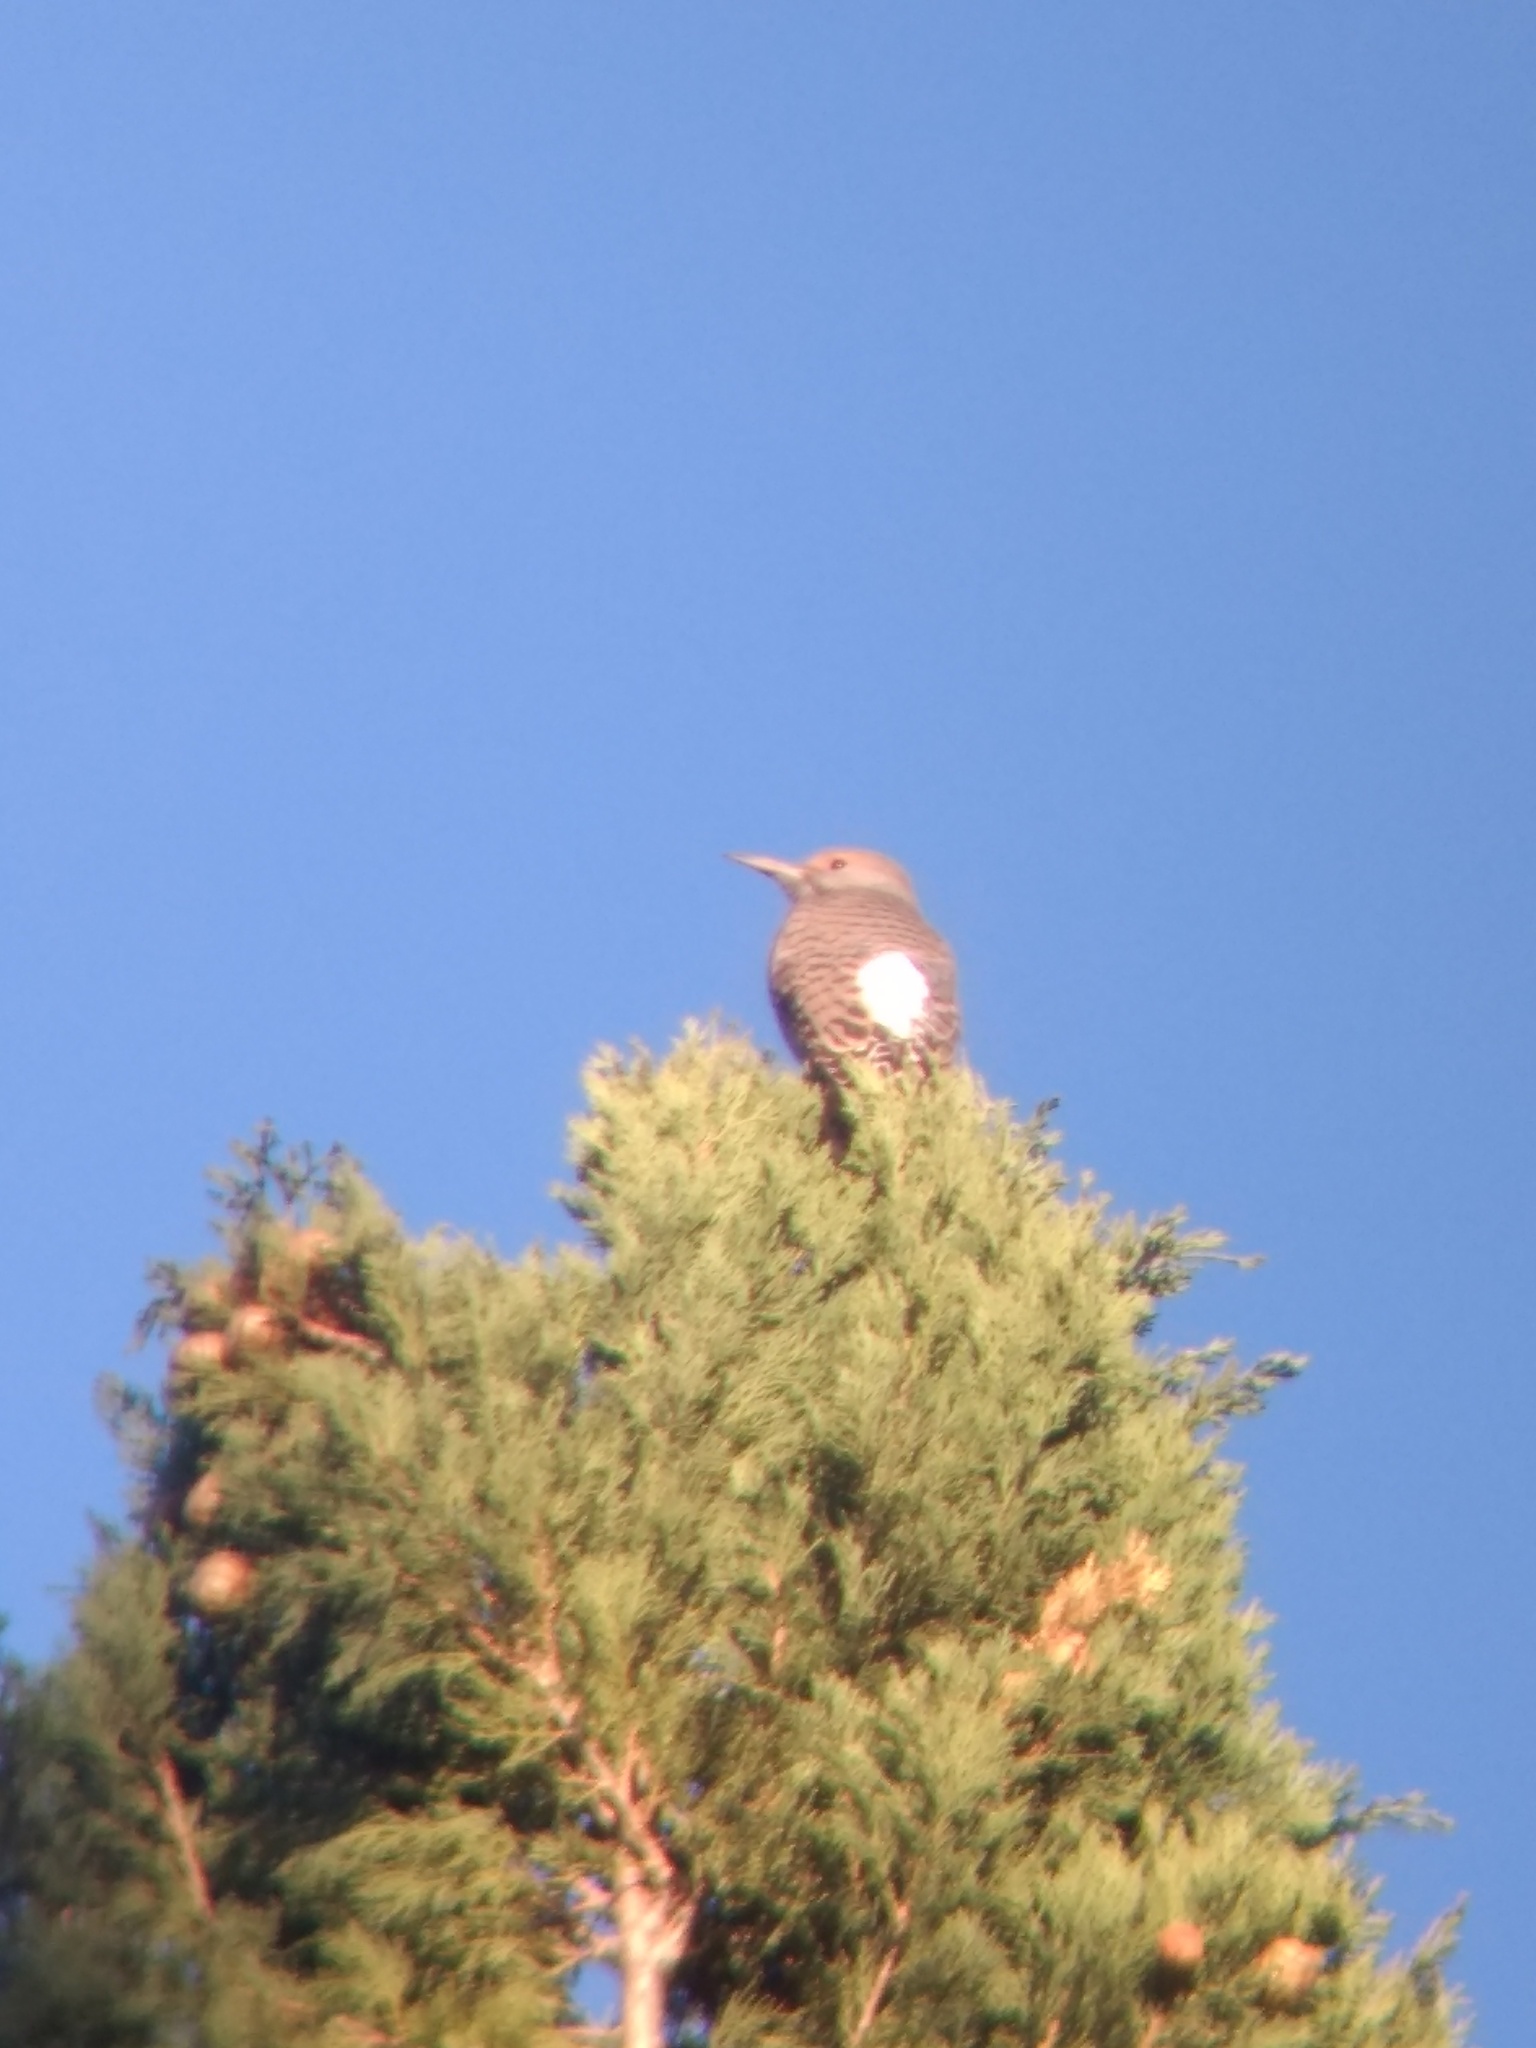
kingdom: Animalia
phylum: Chordata
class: Aves
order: Piciformes
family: Picidae
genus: Colaptes
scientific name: Colaptes auratus
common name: Northern flicker
